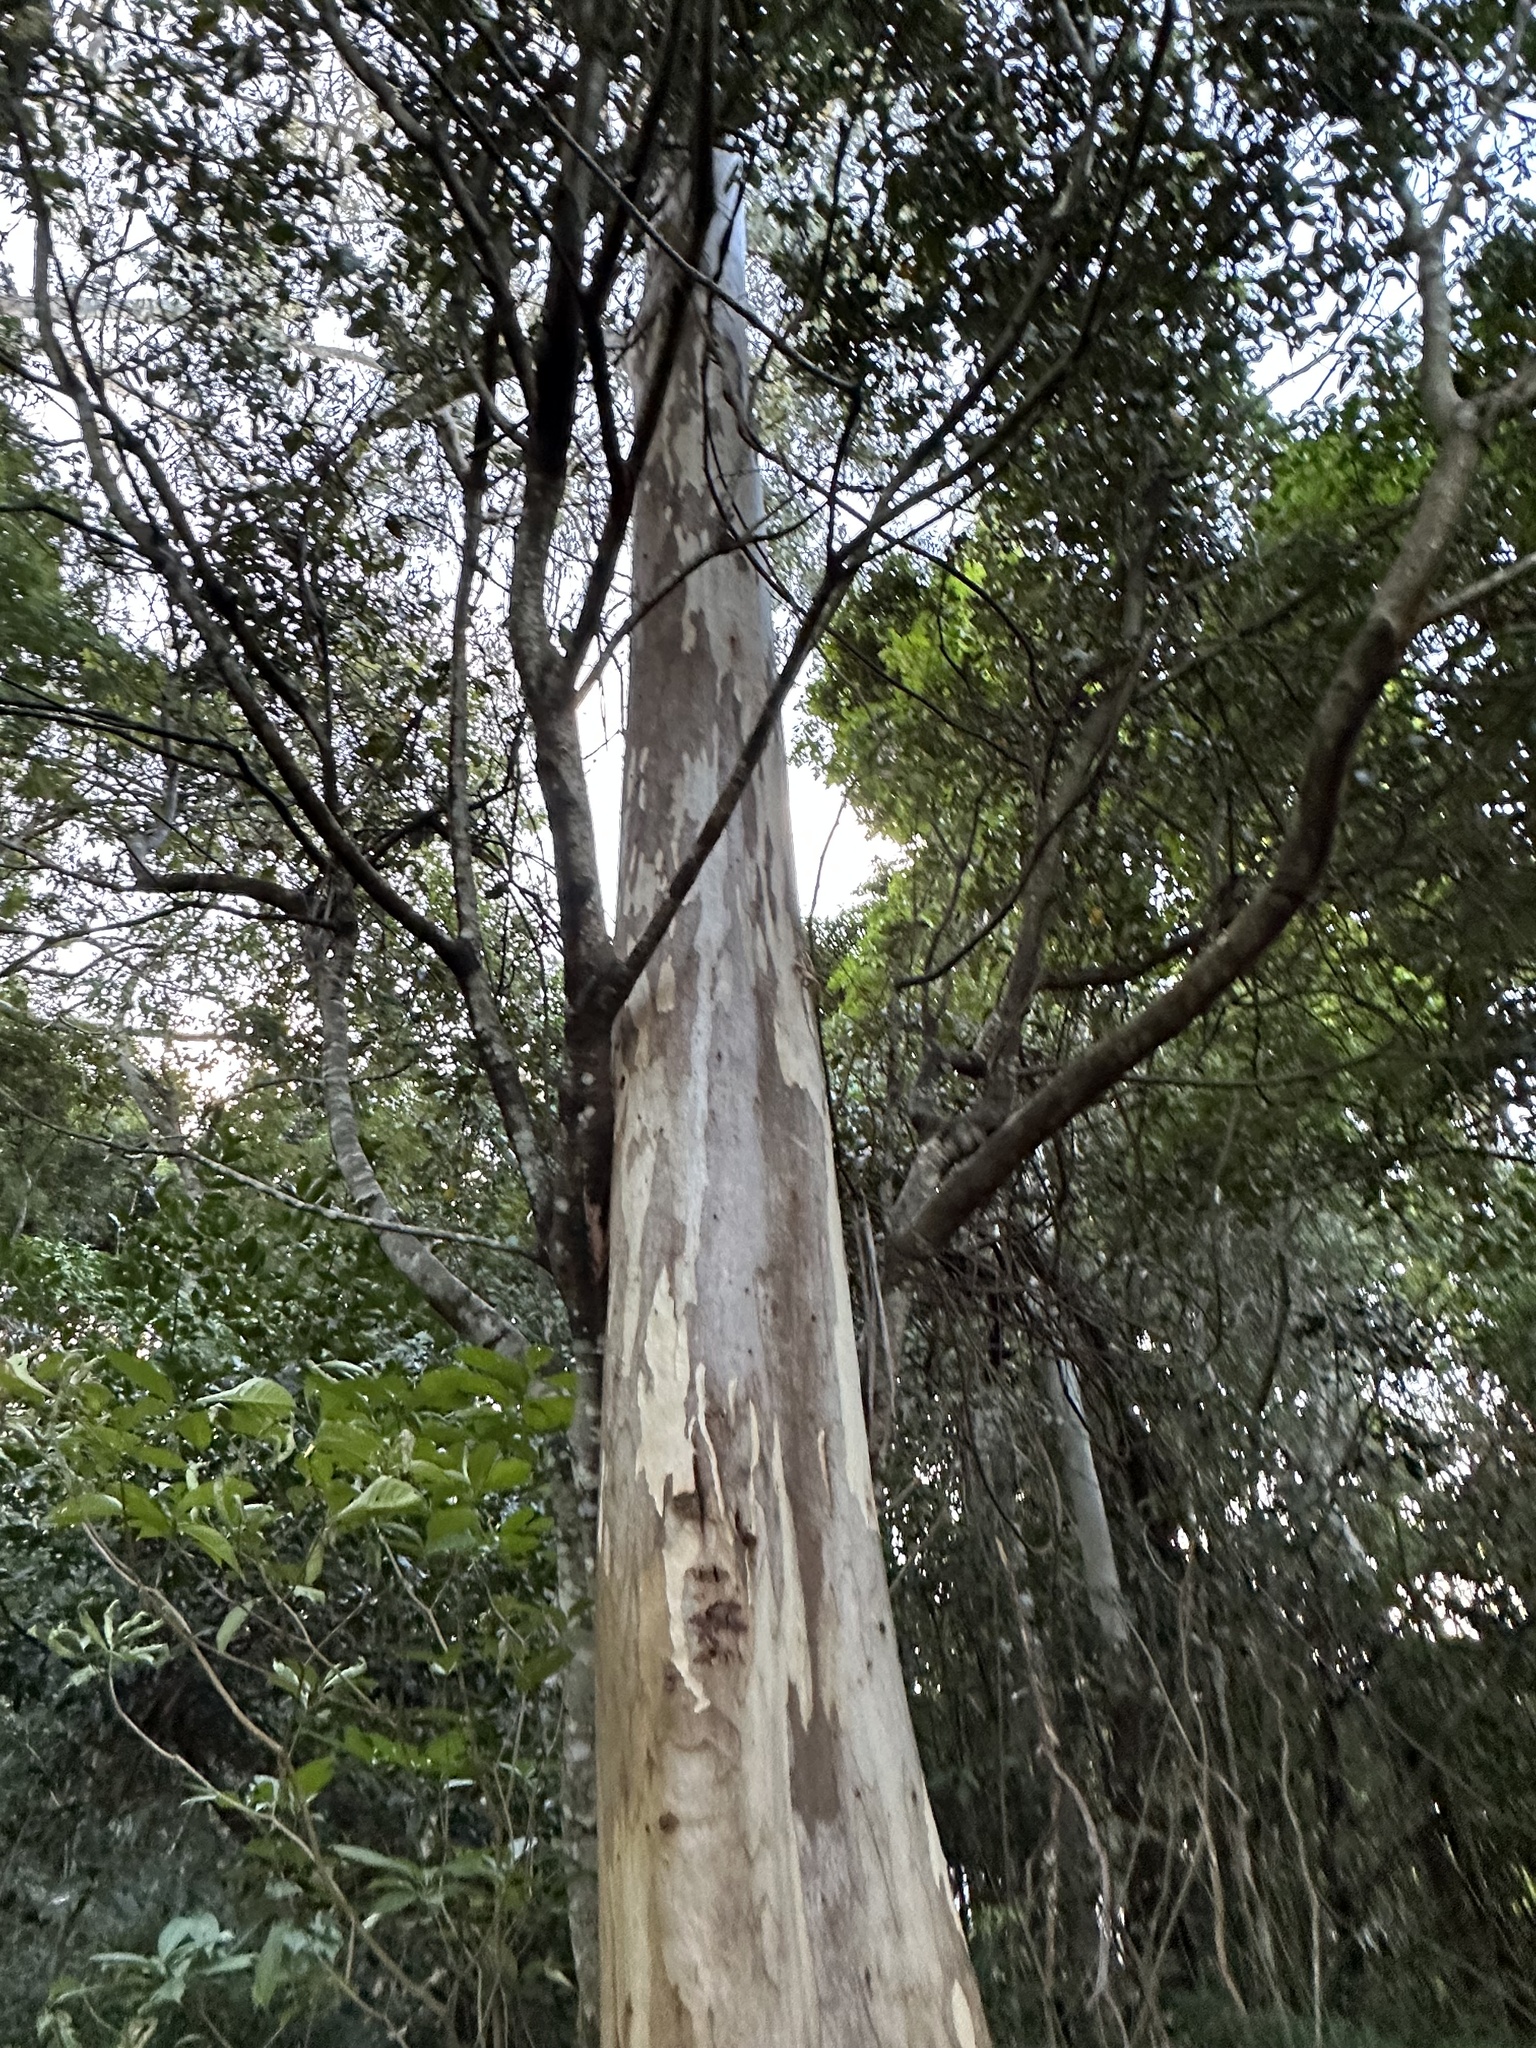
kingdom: Plantae
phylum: Tracheophyta
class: Magnoliopsida
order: Myrtales
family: Myrtaceae
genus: Eucalyptus
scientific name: Eucalyptus tereticornis
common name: Forest redgum
